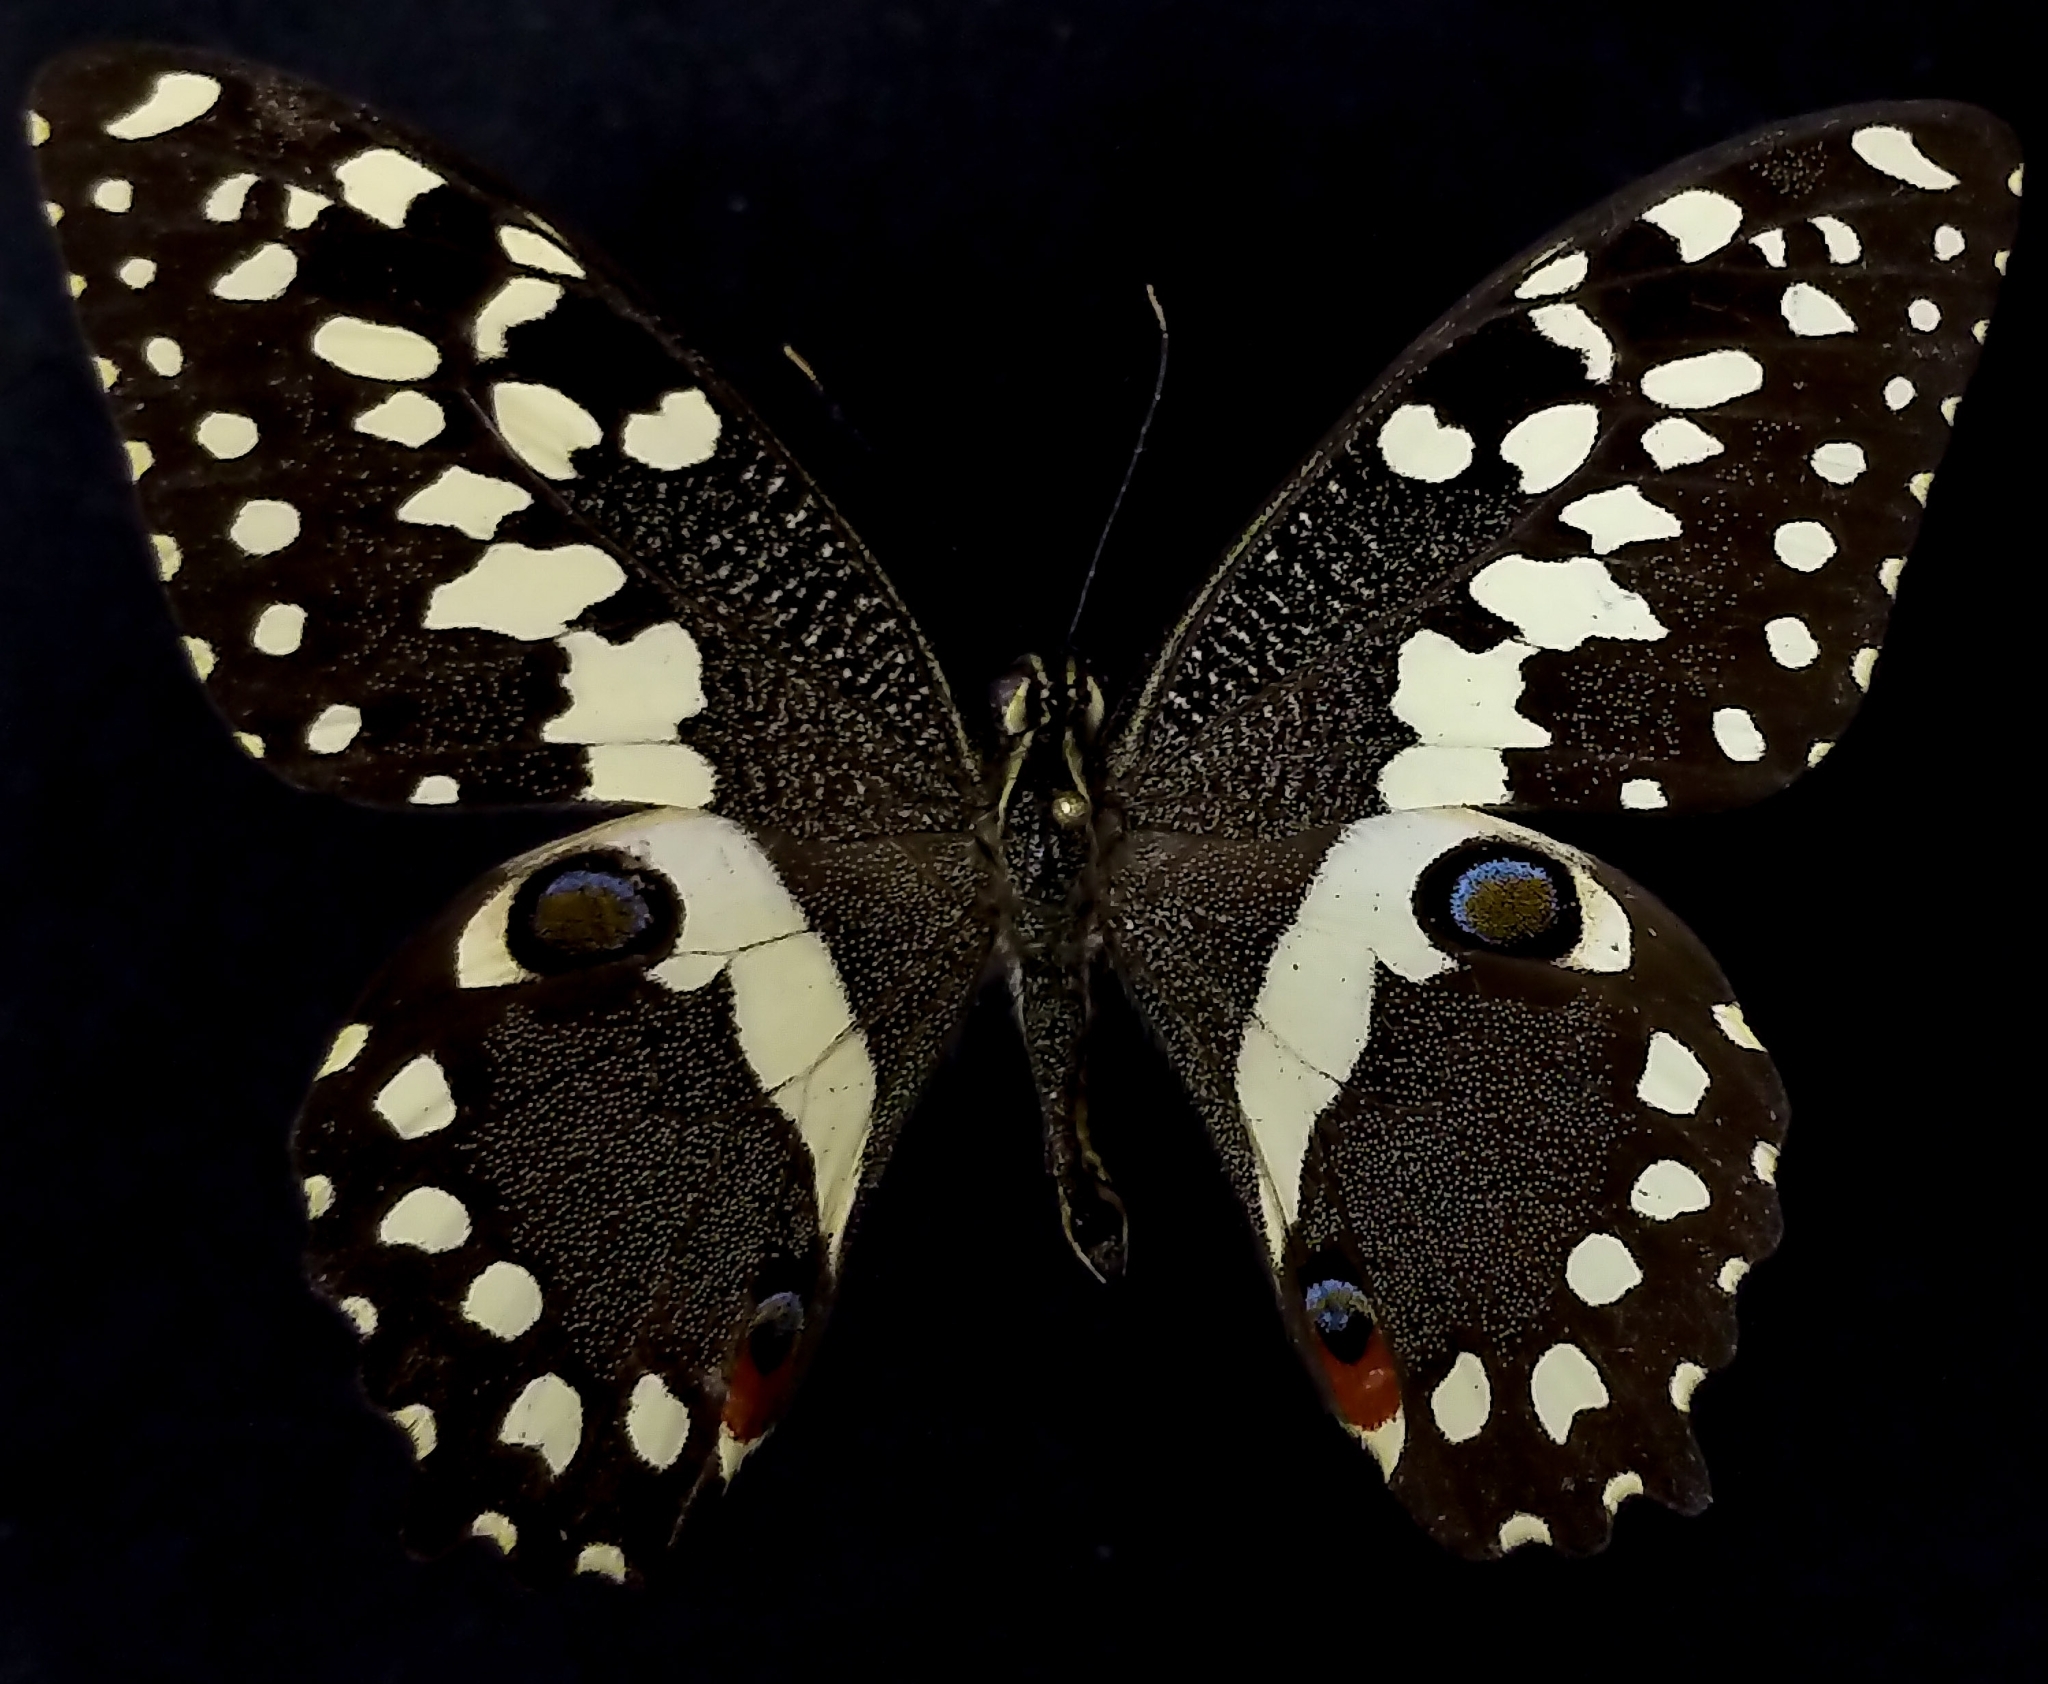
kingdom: Animalia
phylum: Arthropoda
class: Insecta
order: Lepidoptera
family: Papilionidae
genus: Papilio
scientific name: Papilio demodocus
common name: Christmas butterfly
